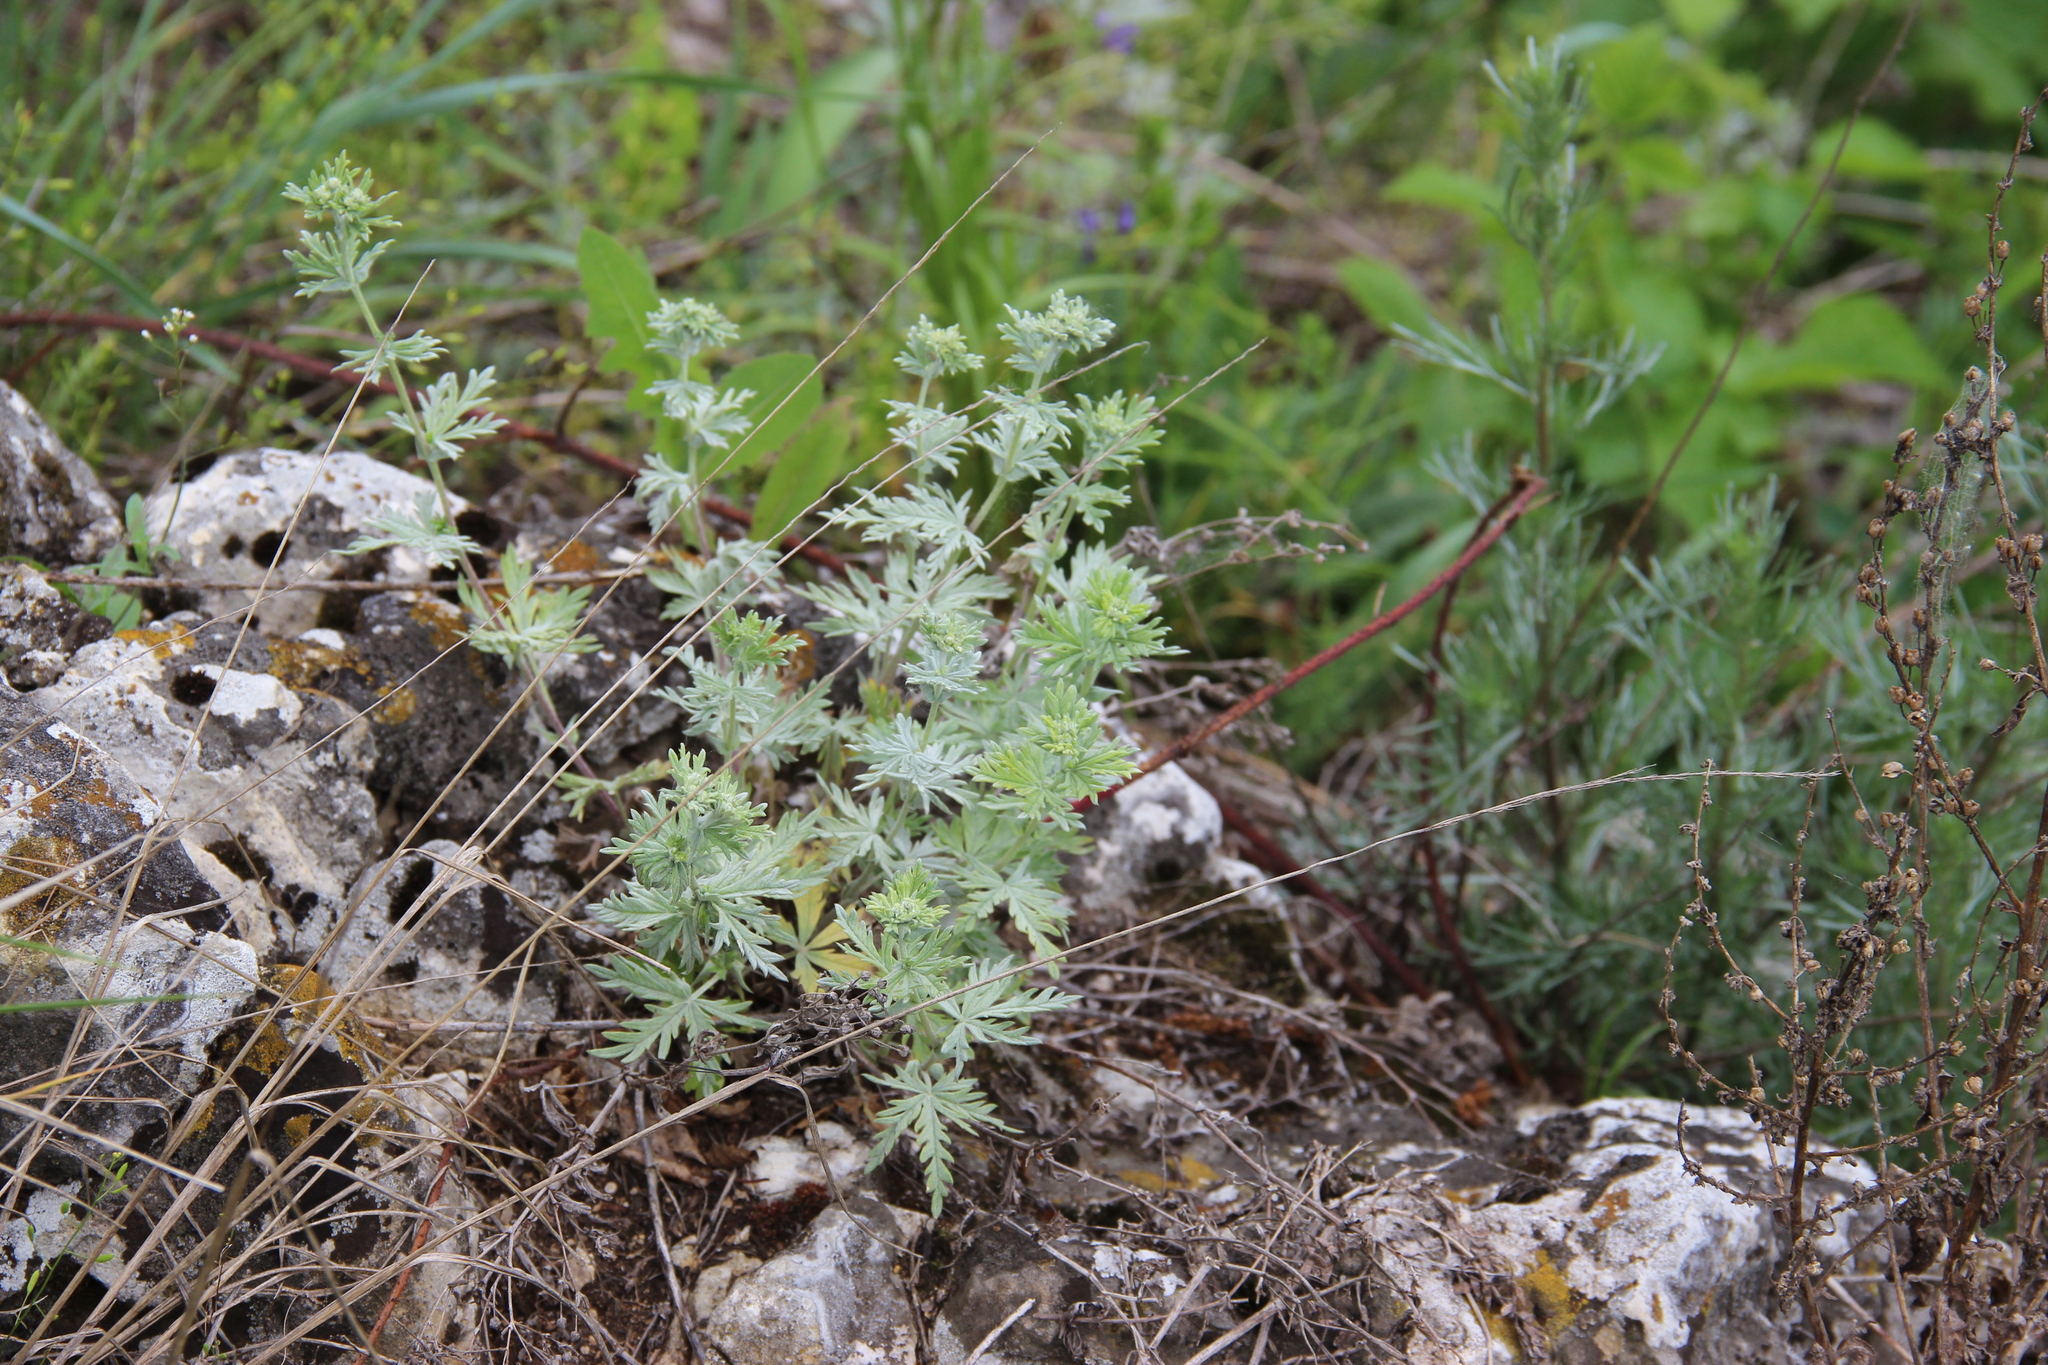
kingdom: Plantae
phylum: Tracheophyta
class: Magnoliopsida
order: Rosales
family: Rosaceae
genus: Potentilla
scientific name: Potentilla argentea
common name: Hoary cinquefoil
